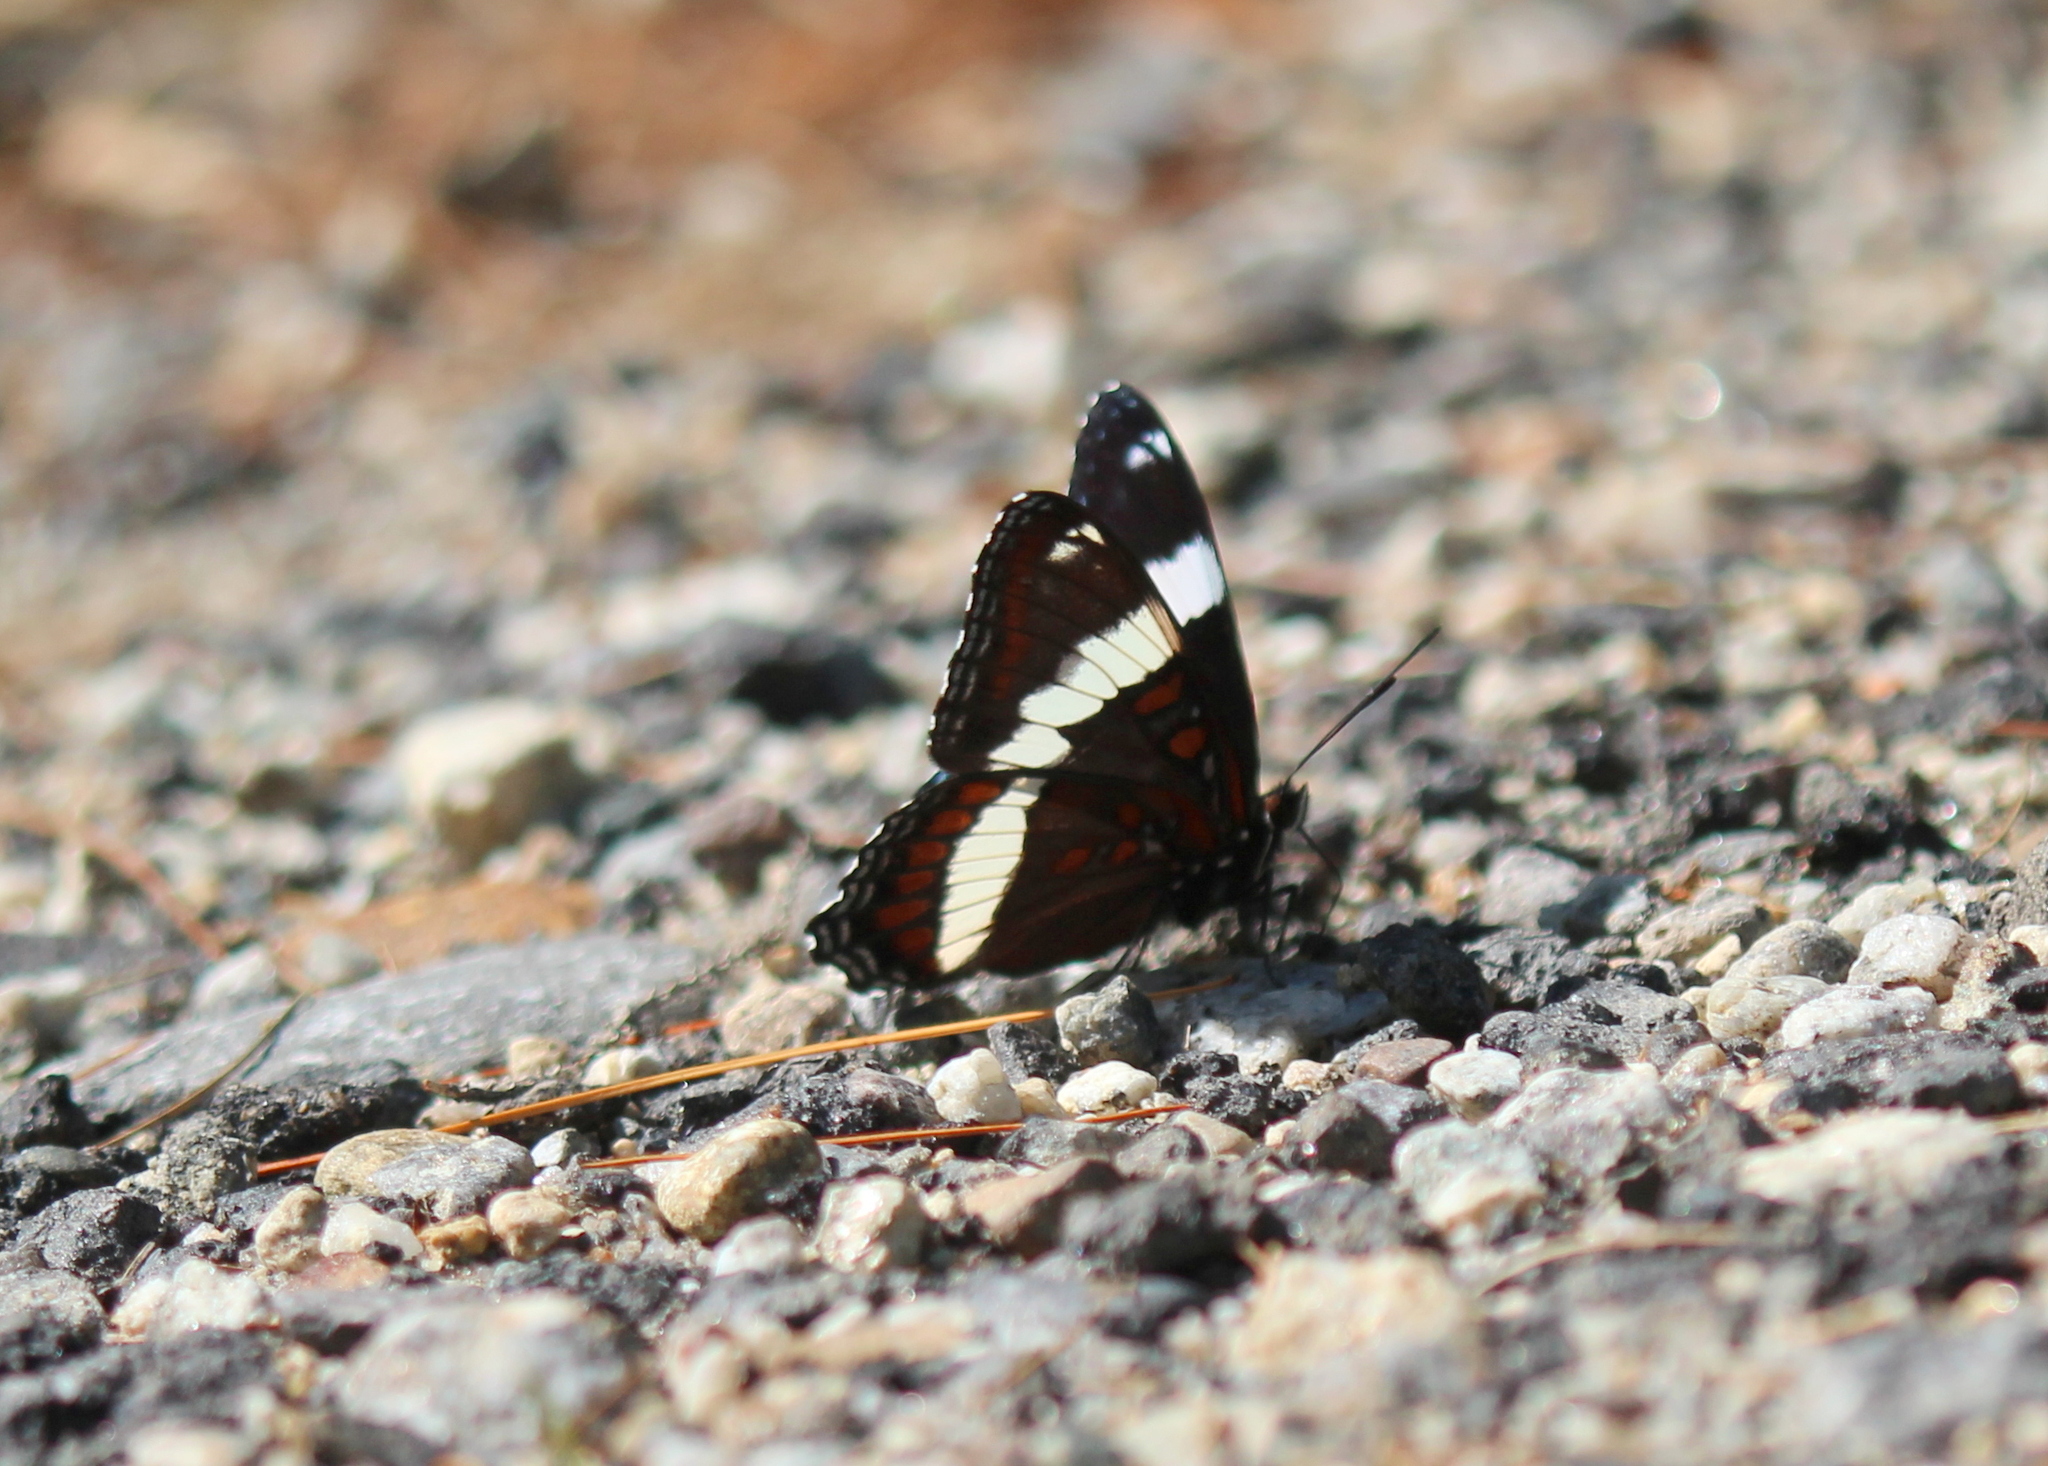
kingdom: Animalia
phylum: Arthropoda
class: Insecta
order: Lepidoptera
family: Nymphalidae
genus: Limenitis
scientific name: Limenitis arthemis
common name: Red-spotted admiral
